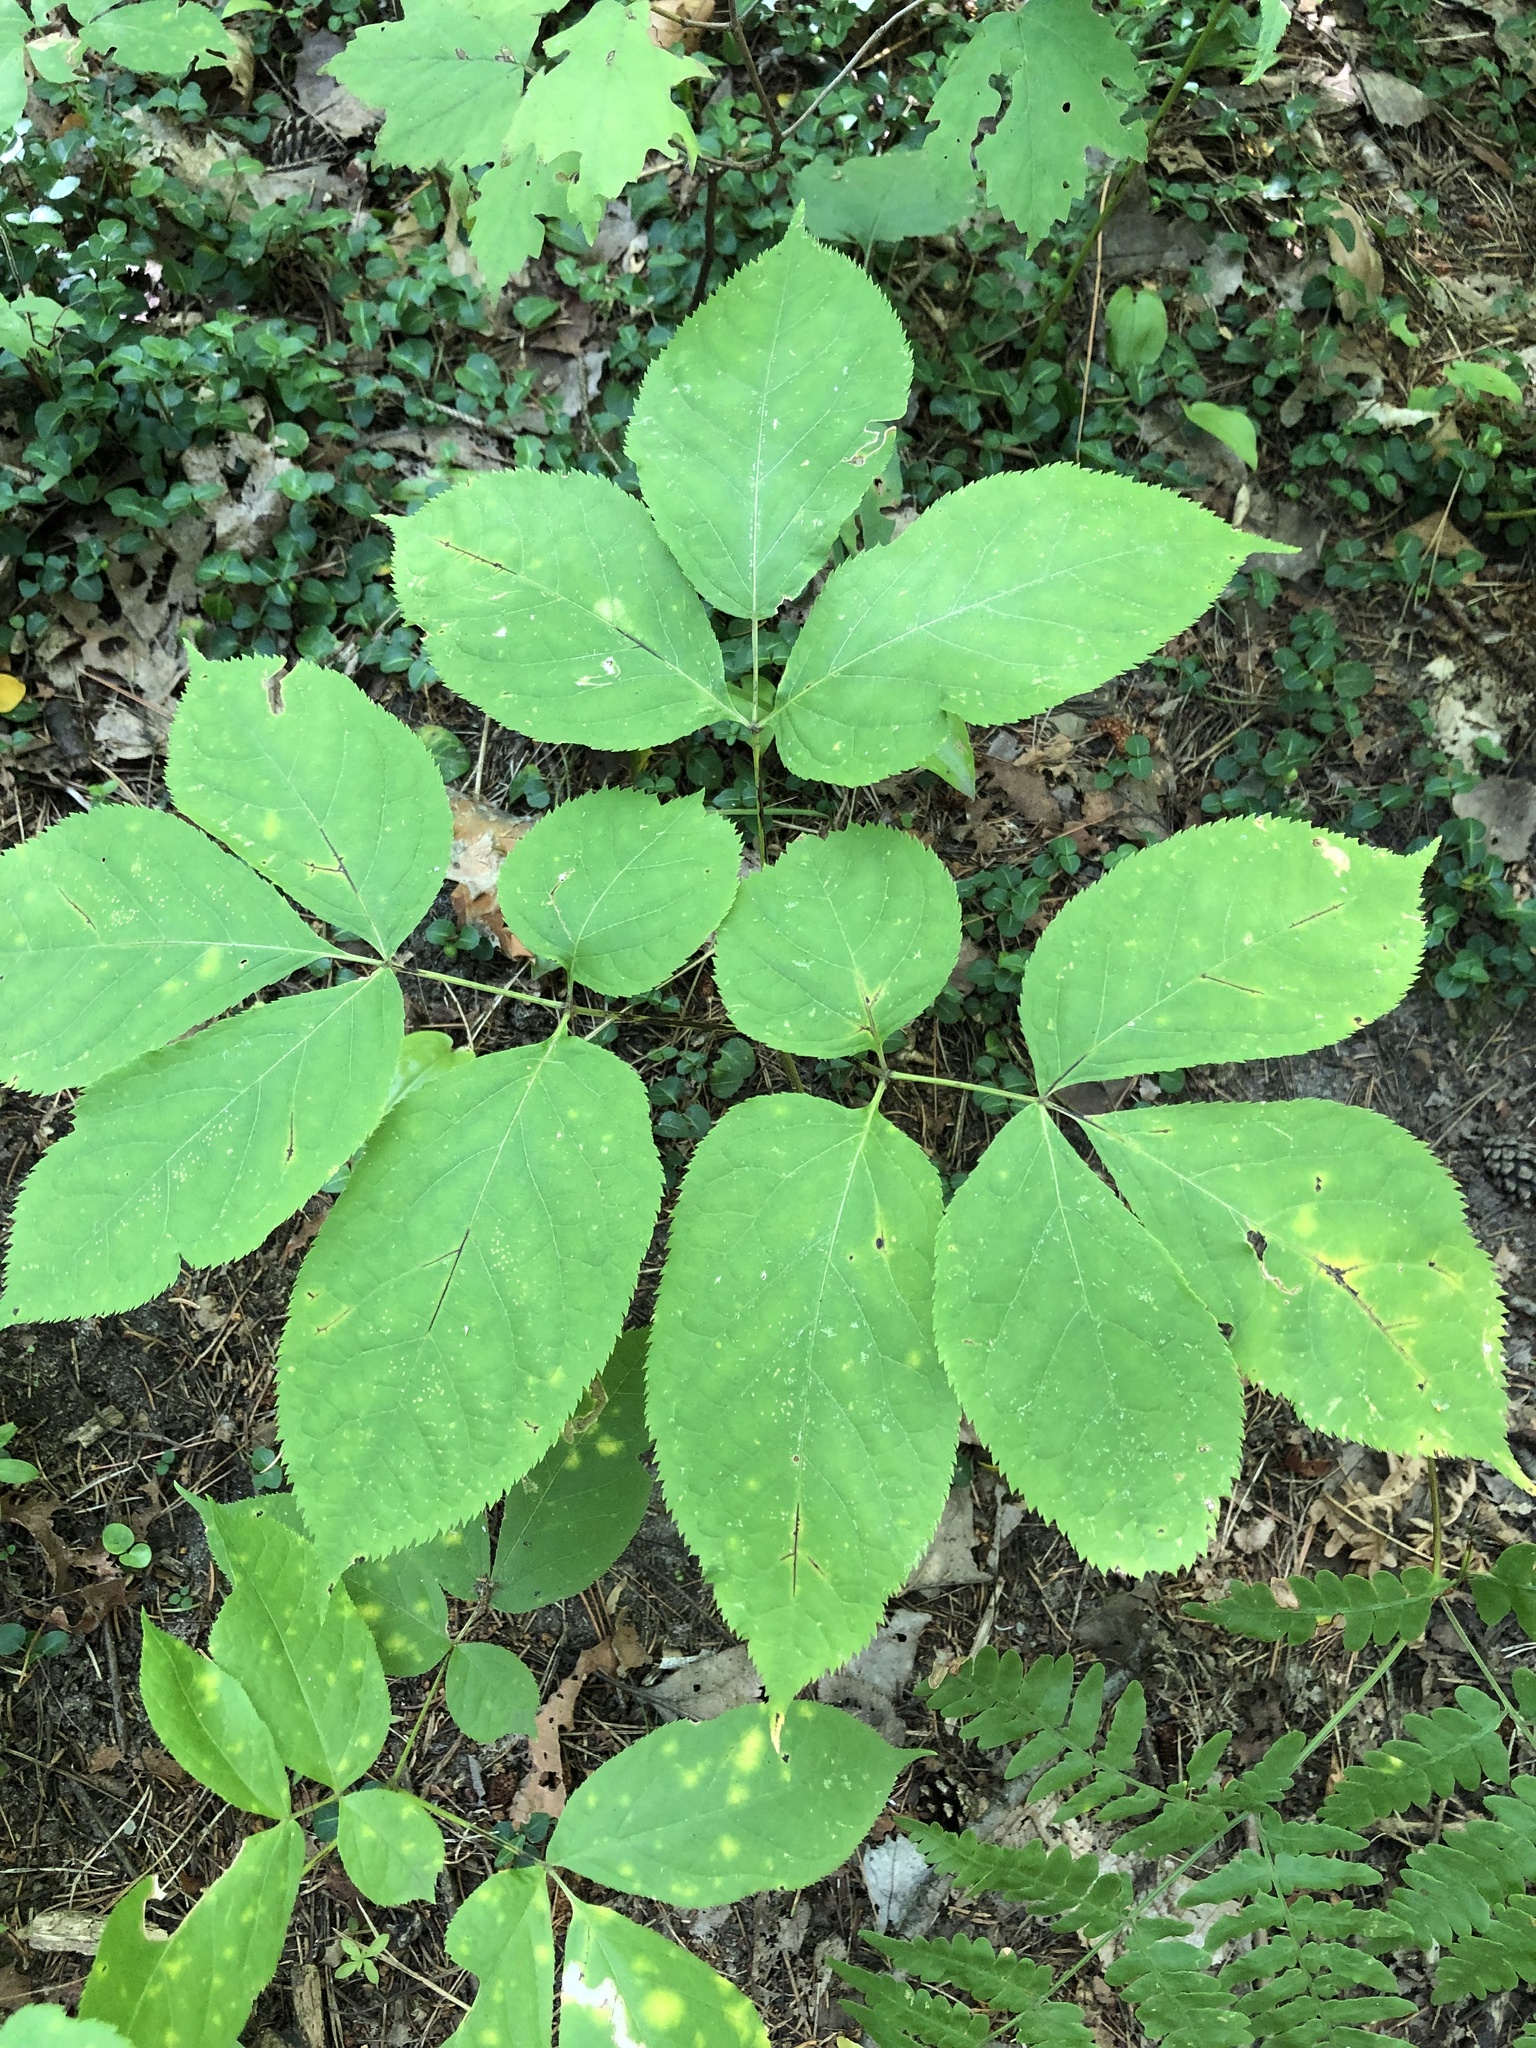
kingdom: Plantae
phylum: Tracheophyta
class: Magnoliopsida
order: Apiales
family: Araliaceae
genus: Aralia
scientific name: Aralia nudicaulis
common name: Wild sarsaparilla
